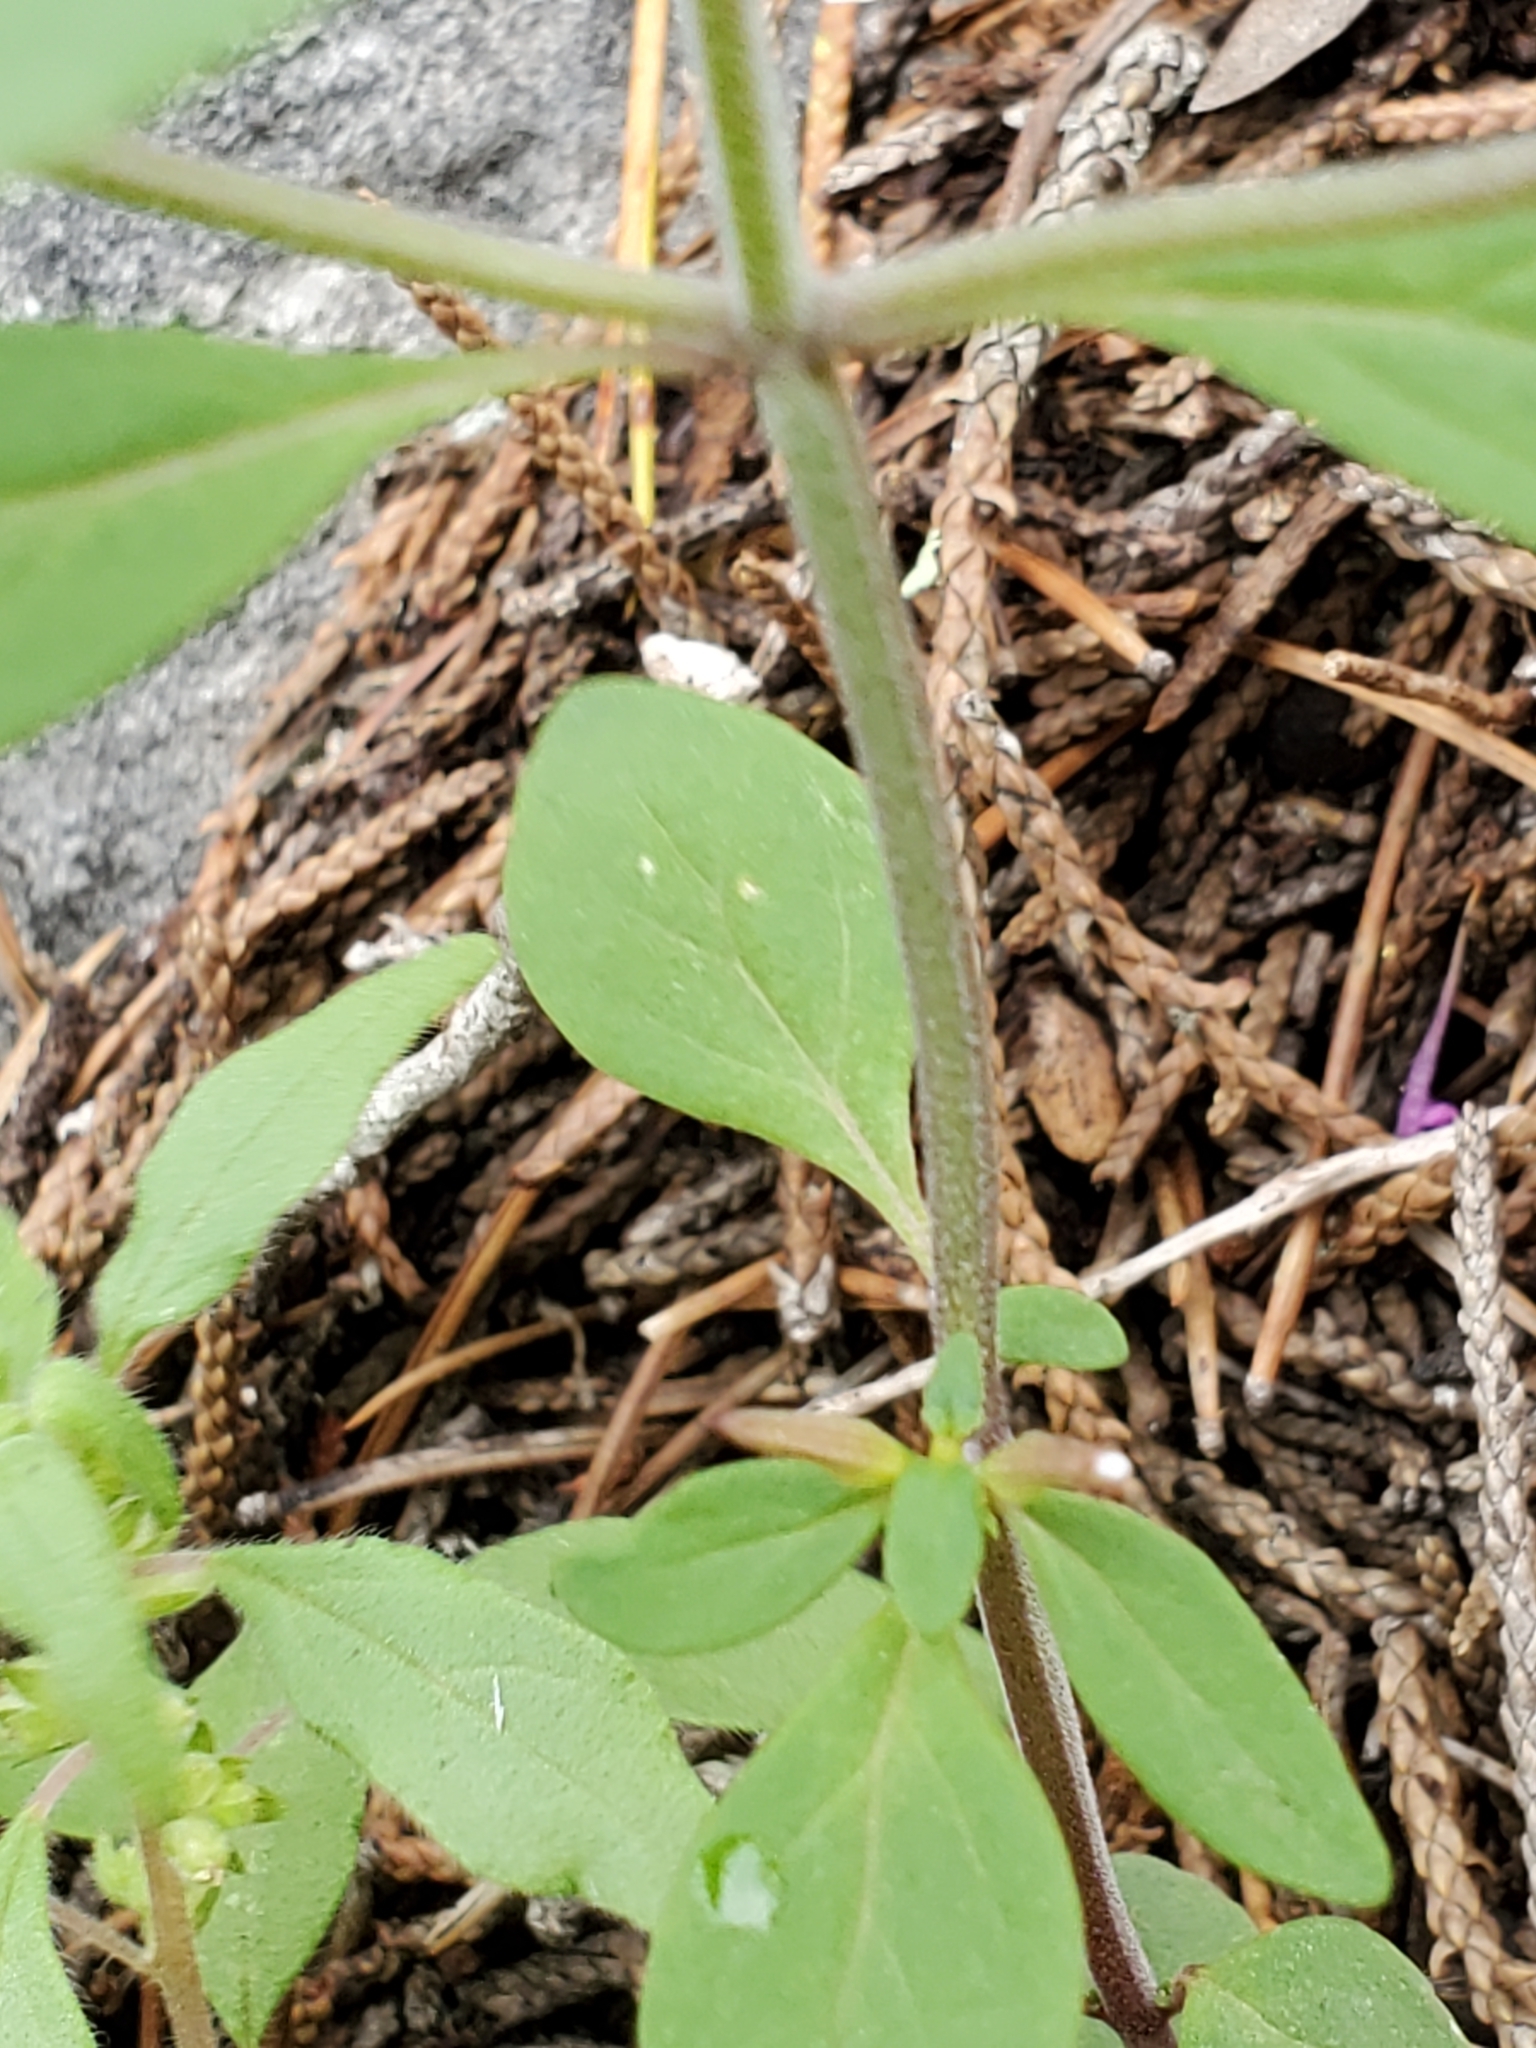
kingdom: Plantae
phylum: Tracheophyta
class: Magnoliopsida
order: Lamiales
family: Lamiaceae
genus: Hedeoma
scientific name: Hedeoma acinoides
